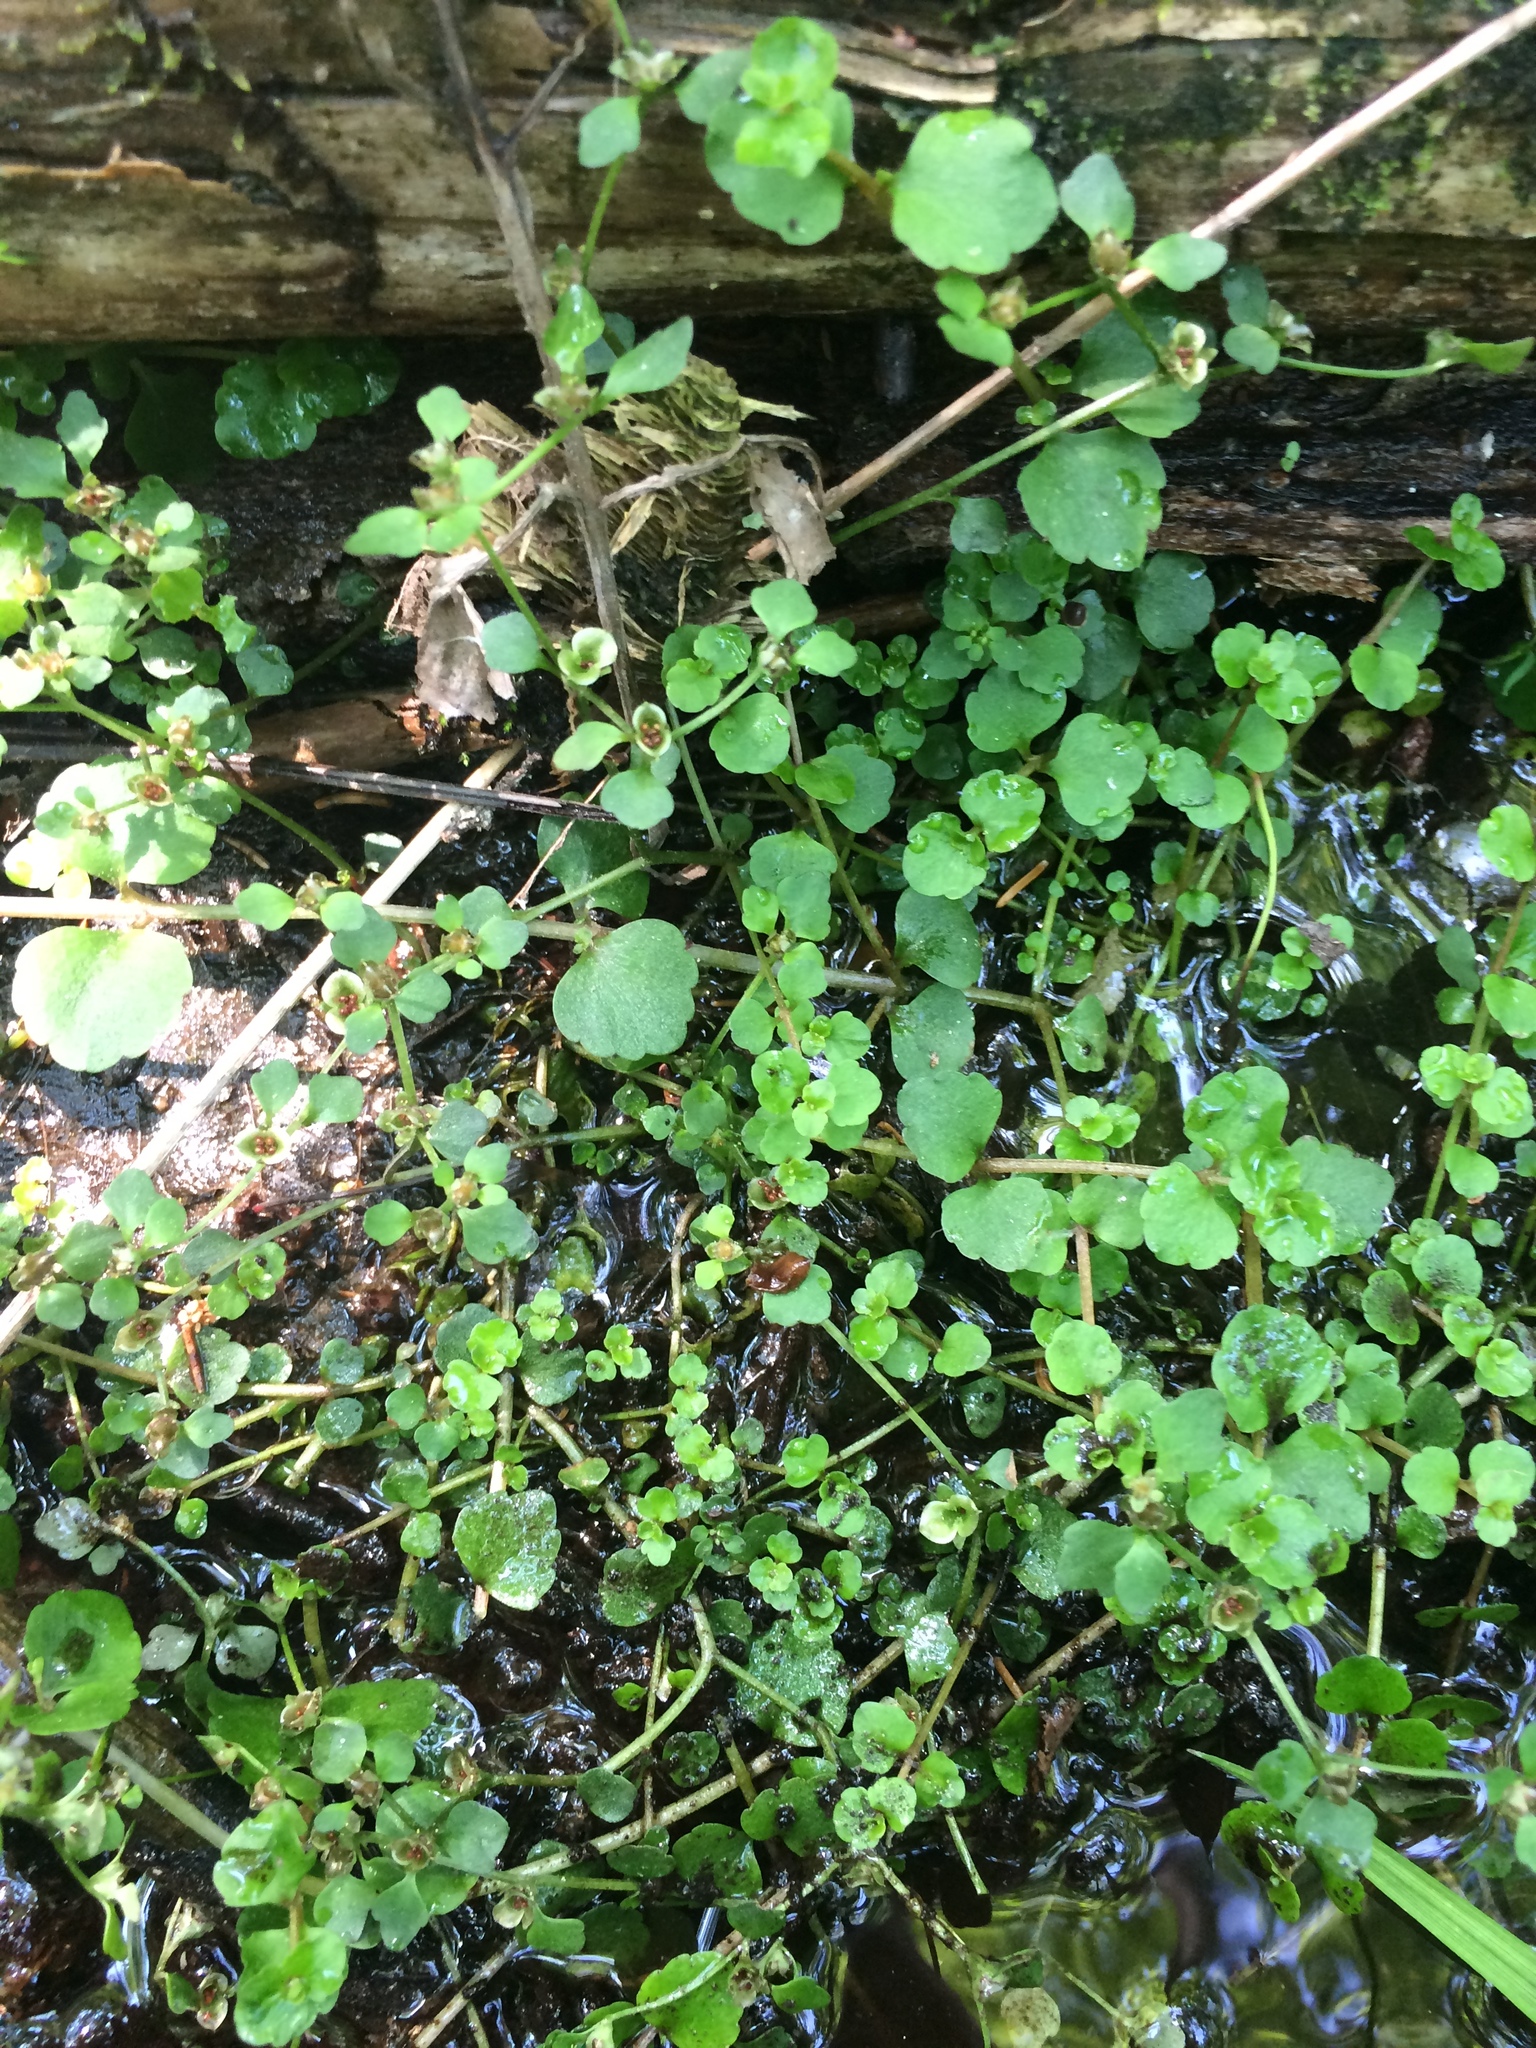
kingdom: Plantae
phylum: Tracheophyta
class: Magnoliopsida
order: Saxifragales
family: Saxifragaceae
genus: Chrysosplenium
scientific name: Chrysosplenium americanum
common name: American golden-saxifrage
